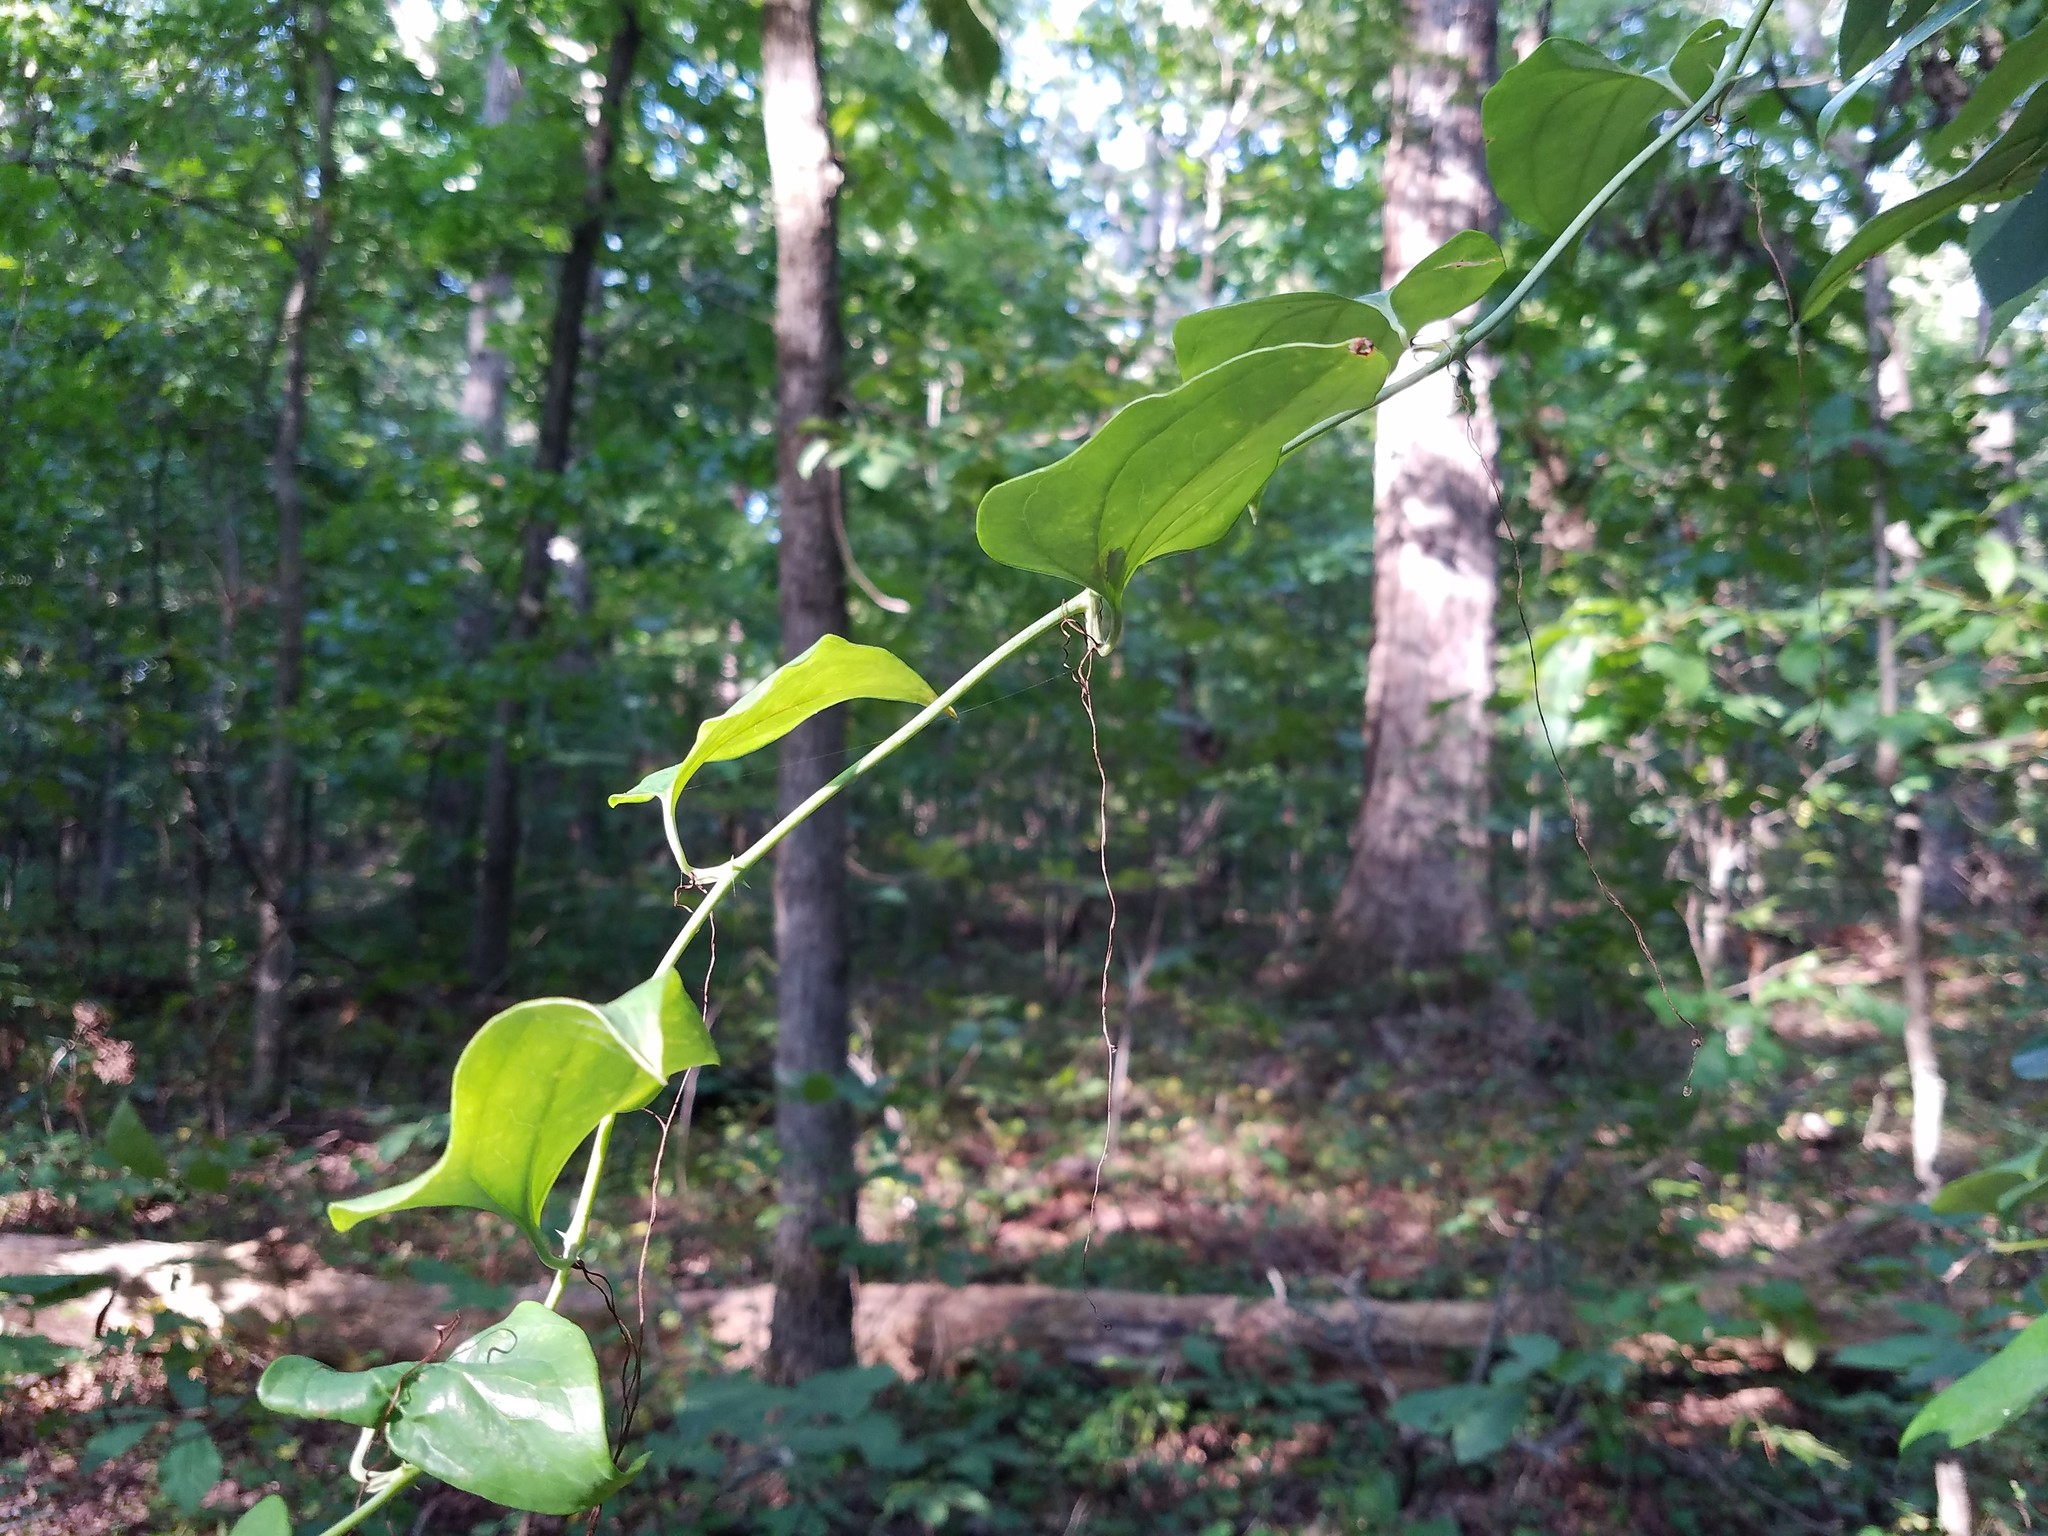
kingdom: Plantae
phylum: Tracheophyta
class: Liliopsida
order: Liliales
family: Smilacaceae
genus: Smilax
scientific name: Smilax glauca
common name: Cat greenbrier
